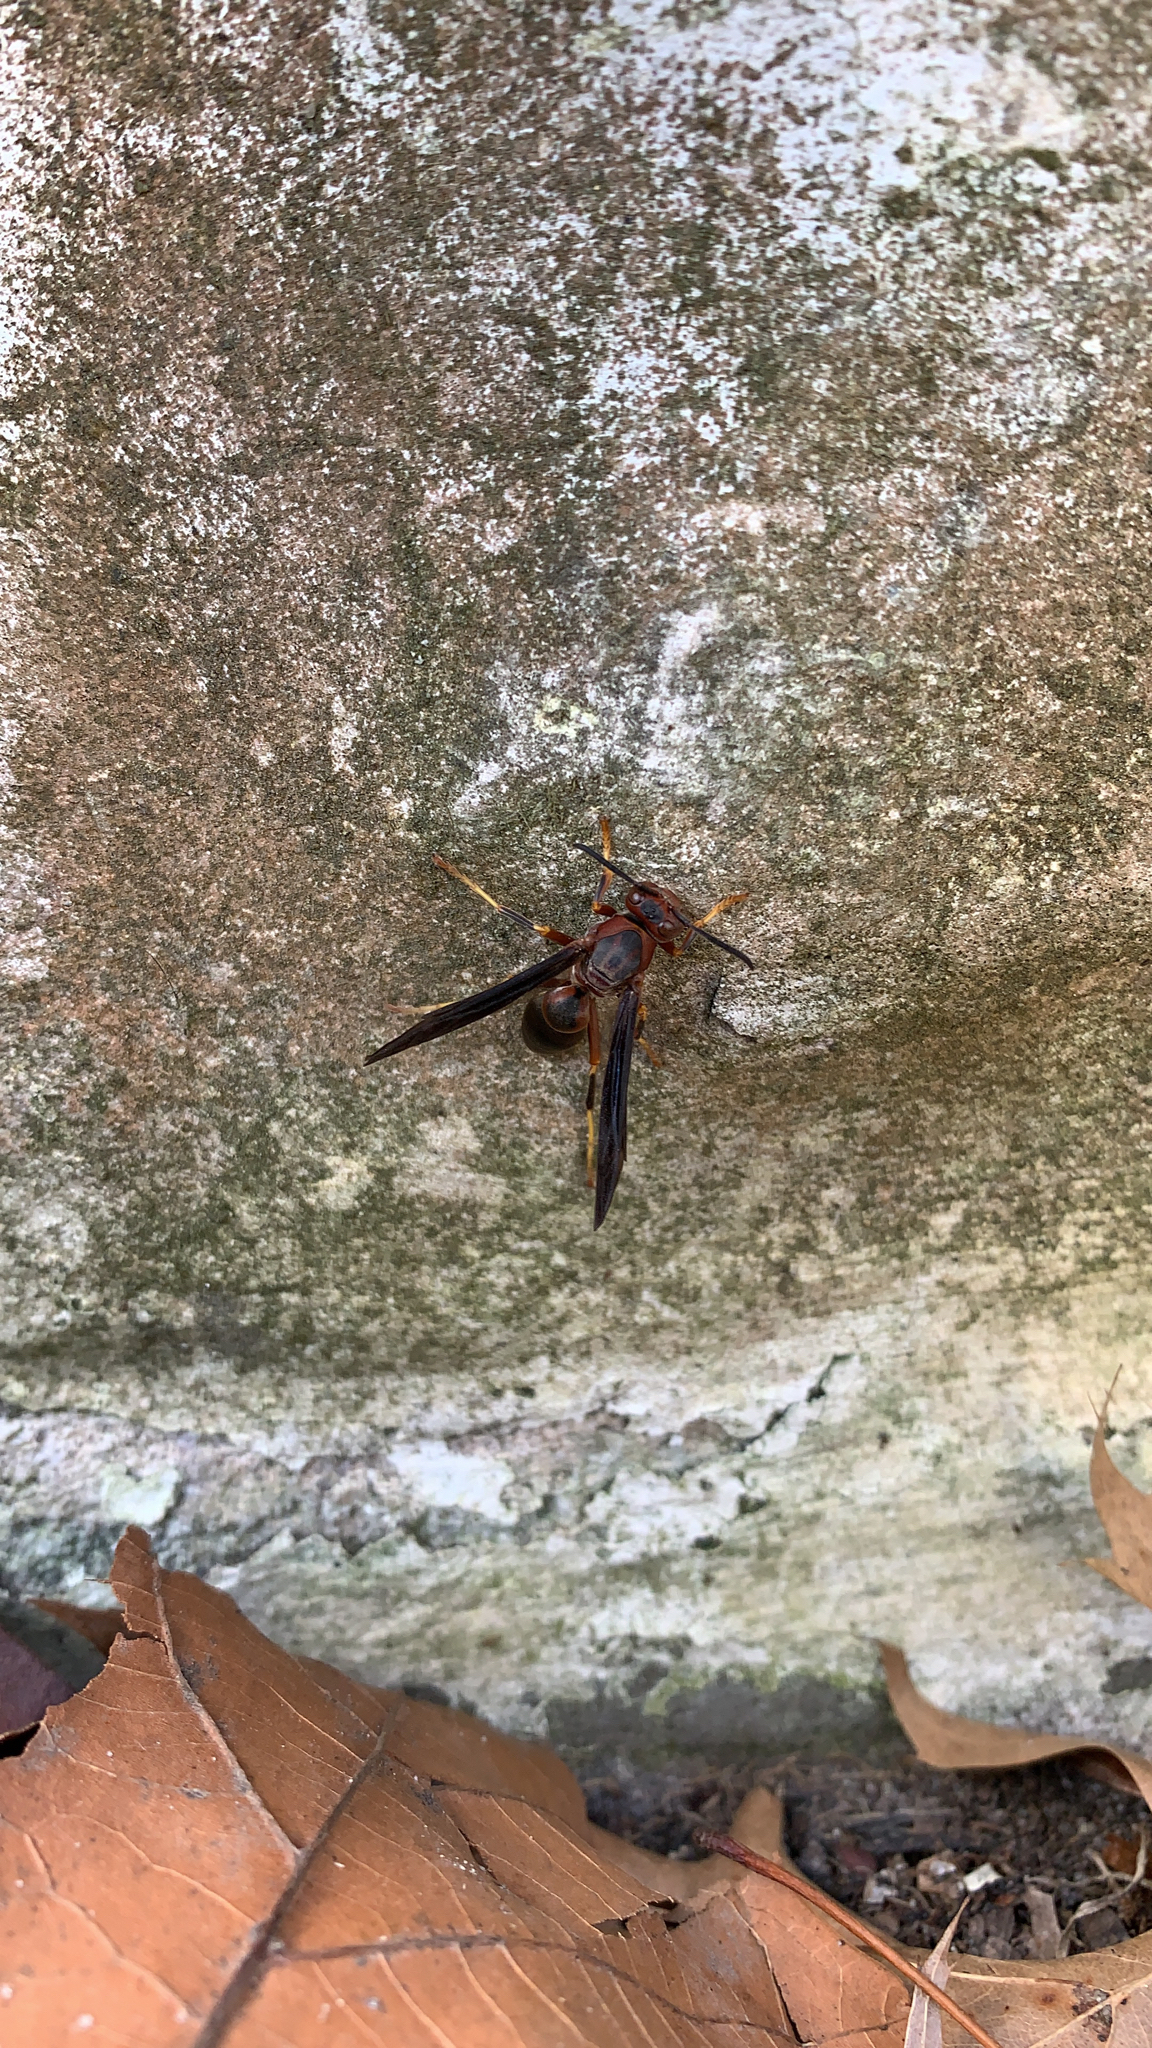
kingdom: Animalia
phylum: Arthropoda
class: Insecta
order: Hymenoptera
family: Eumenidae
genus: Polistes
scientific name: Polistes metricus
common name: Metric paper wasp
